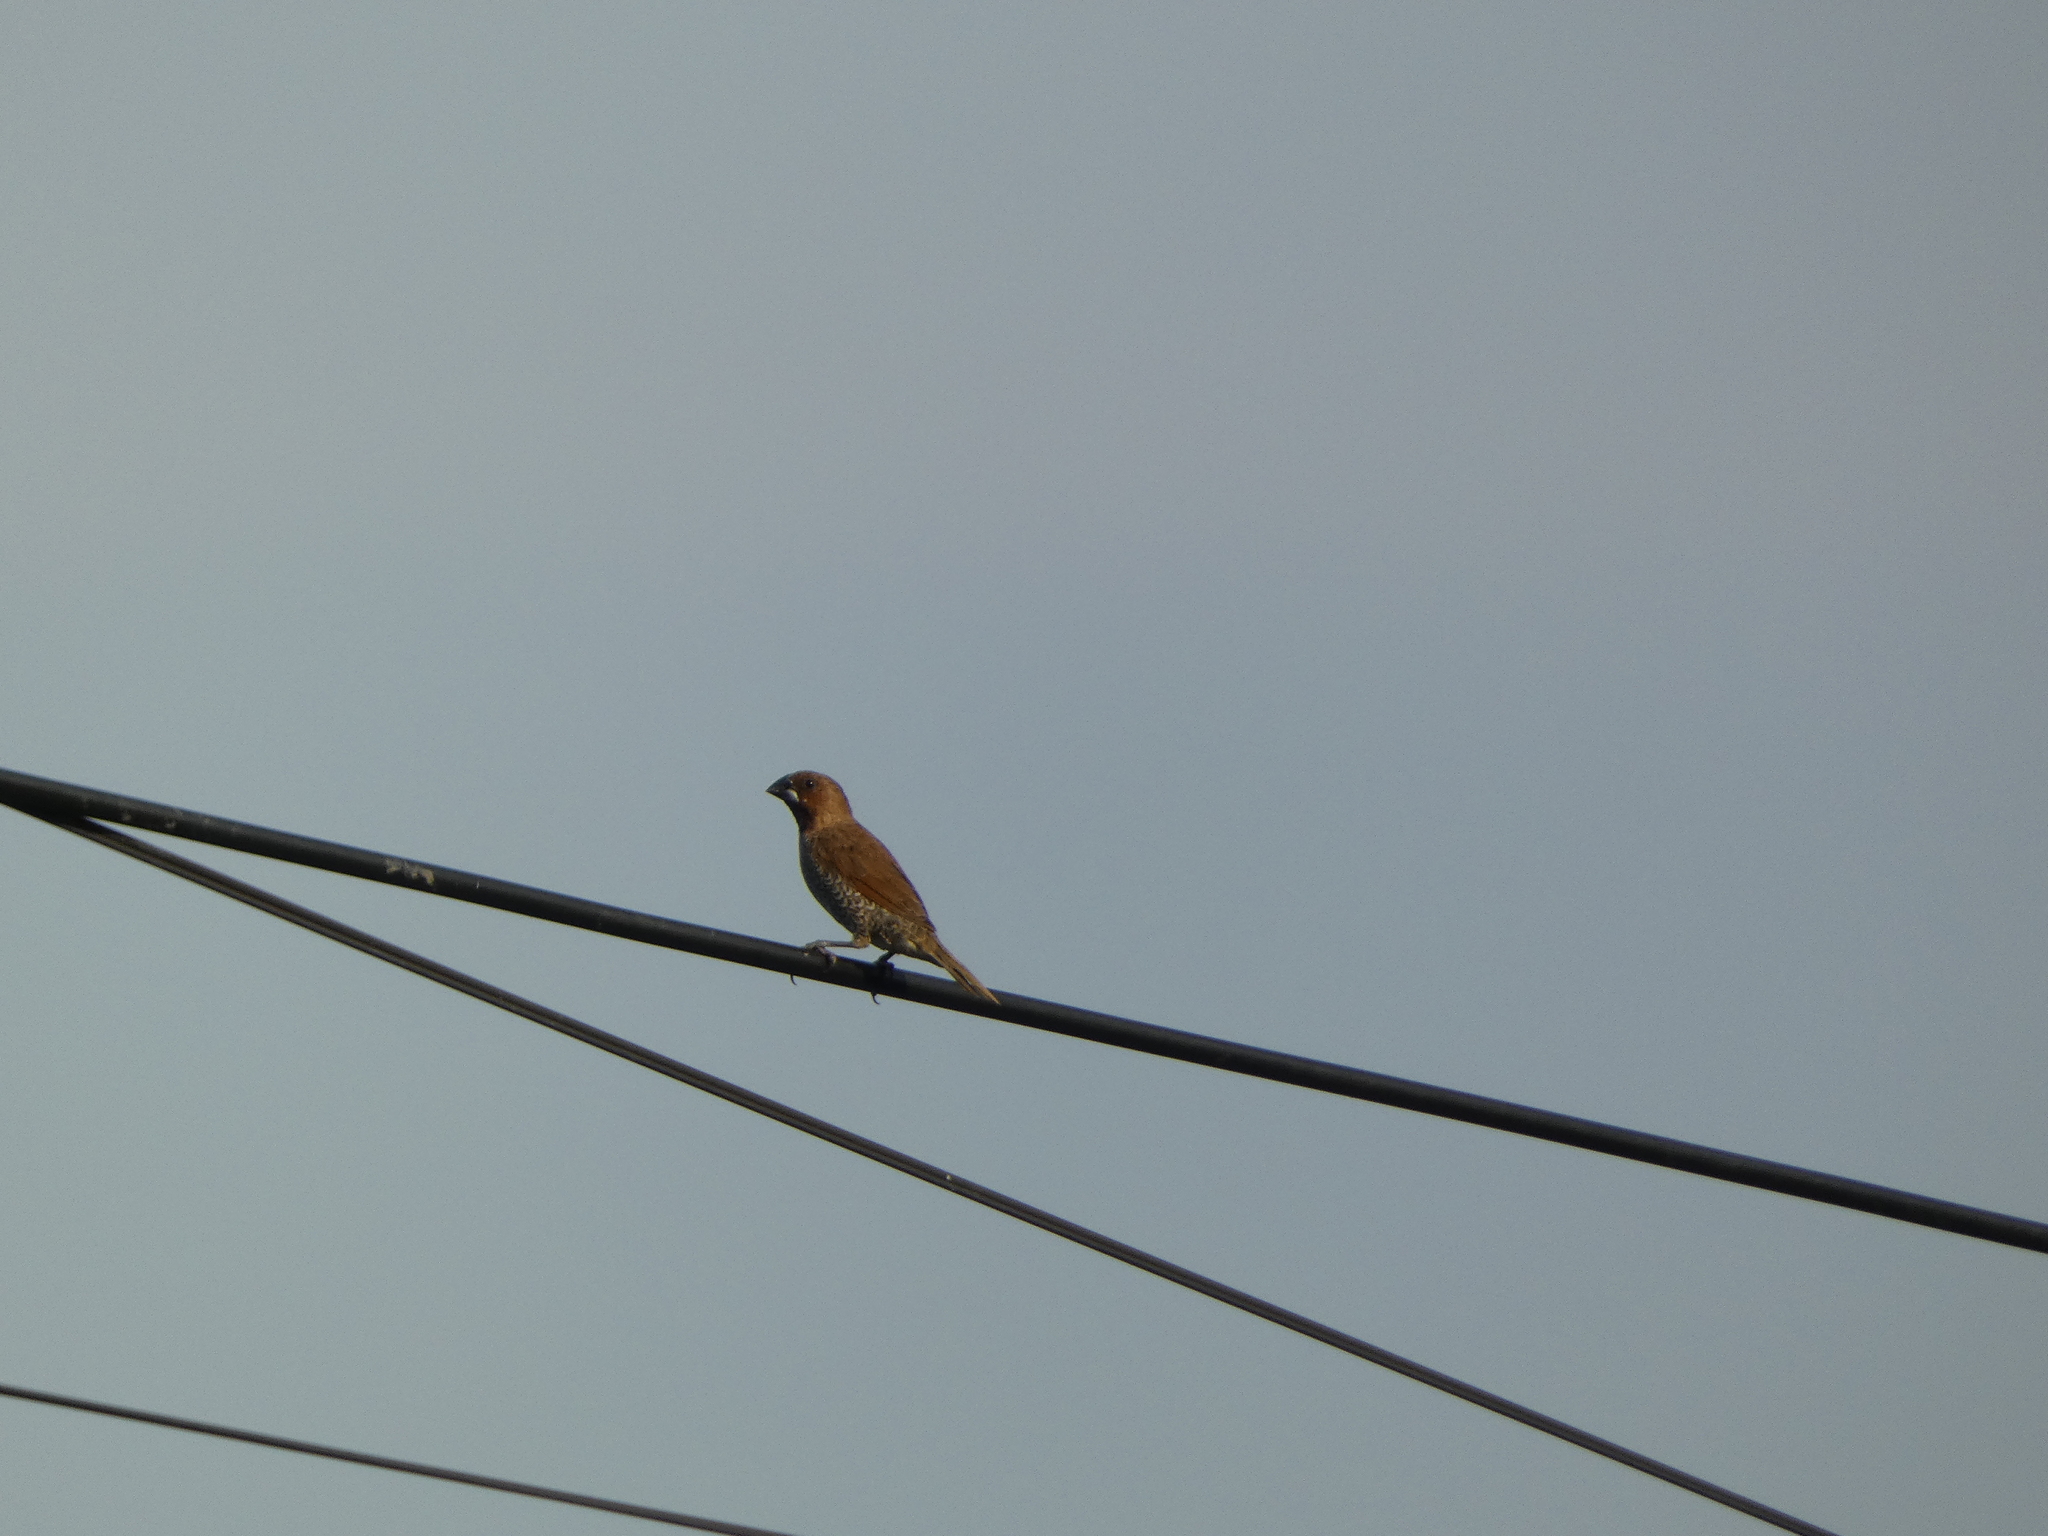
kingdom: Animalia
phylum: Chordata
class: Aves
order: Passeriformes
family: Estrildidae
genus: Lonchura
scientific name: Lonchura punctulata
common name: Scaly-breasted munia
